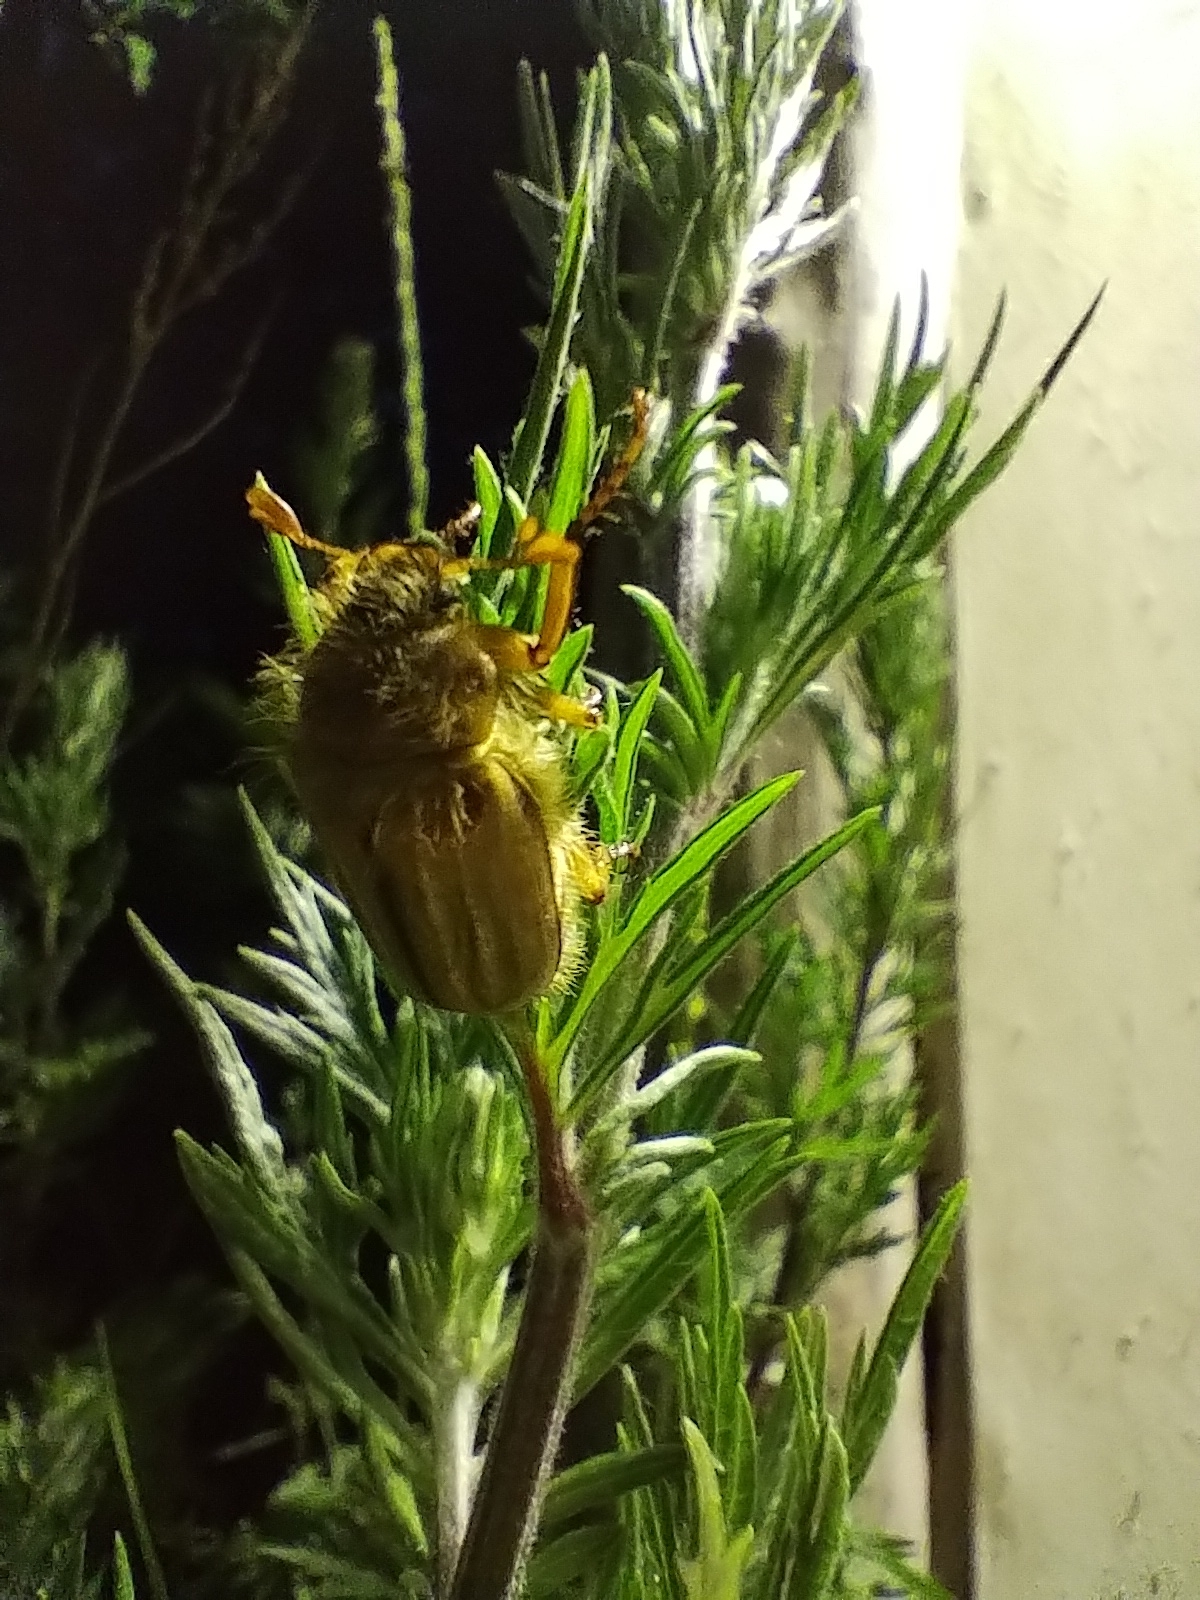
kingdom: Animalia
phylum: Arthropoda
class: Insecta
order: Coleoptera
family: Scarabaeidae
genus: Amphimallon
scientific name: Amphimallon solstitiale
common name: Summer chafer
